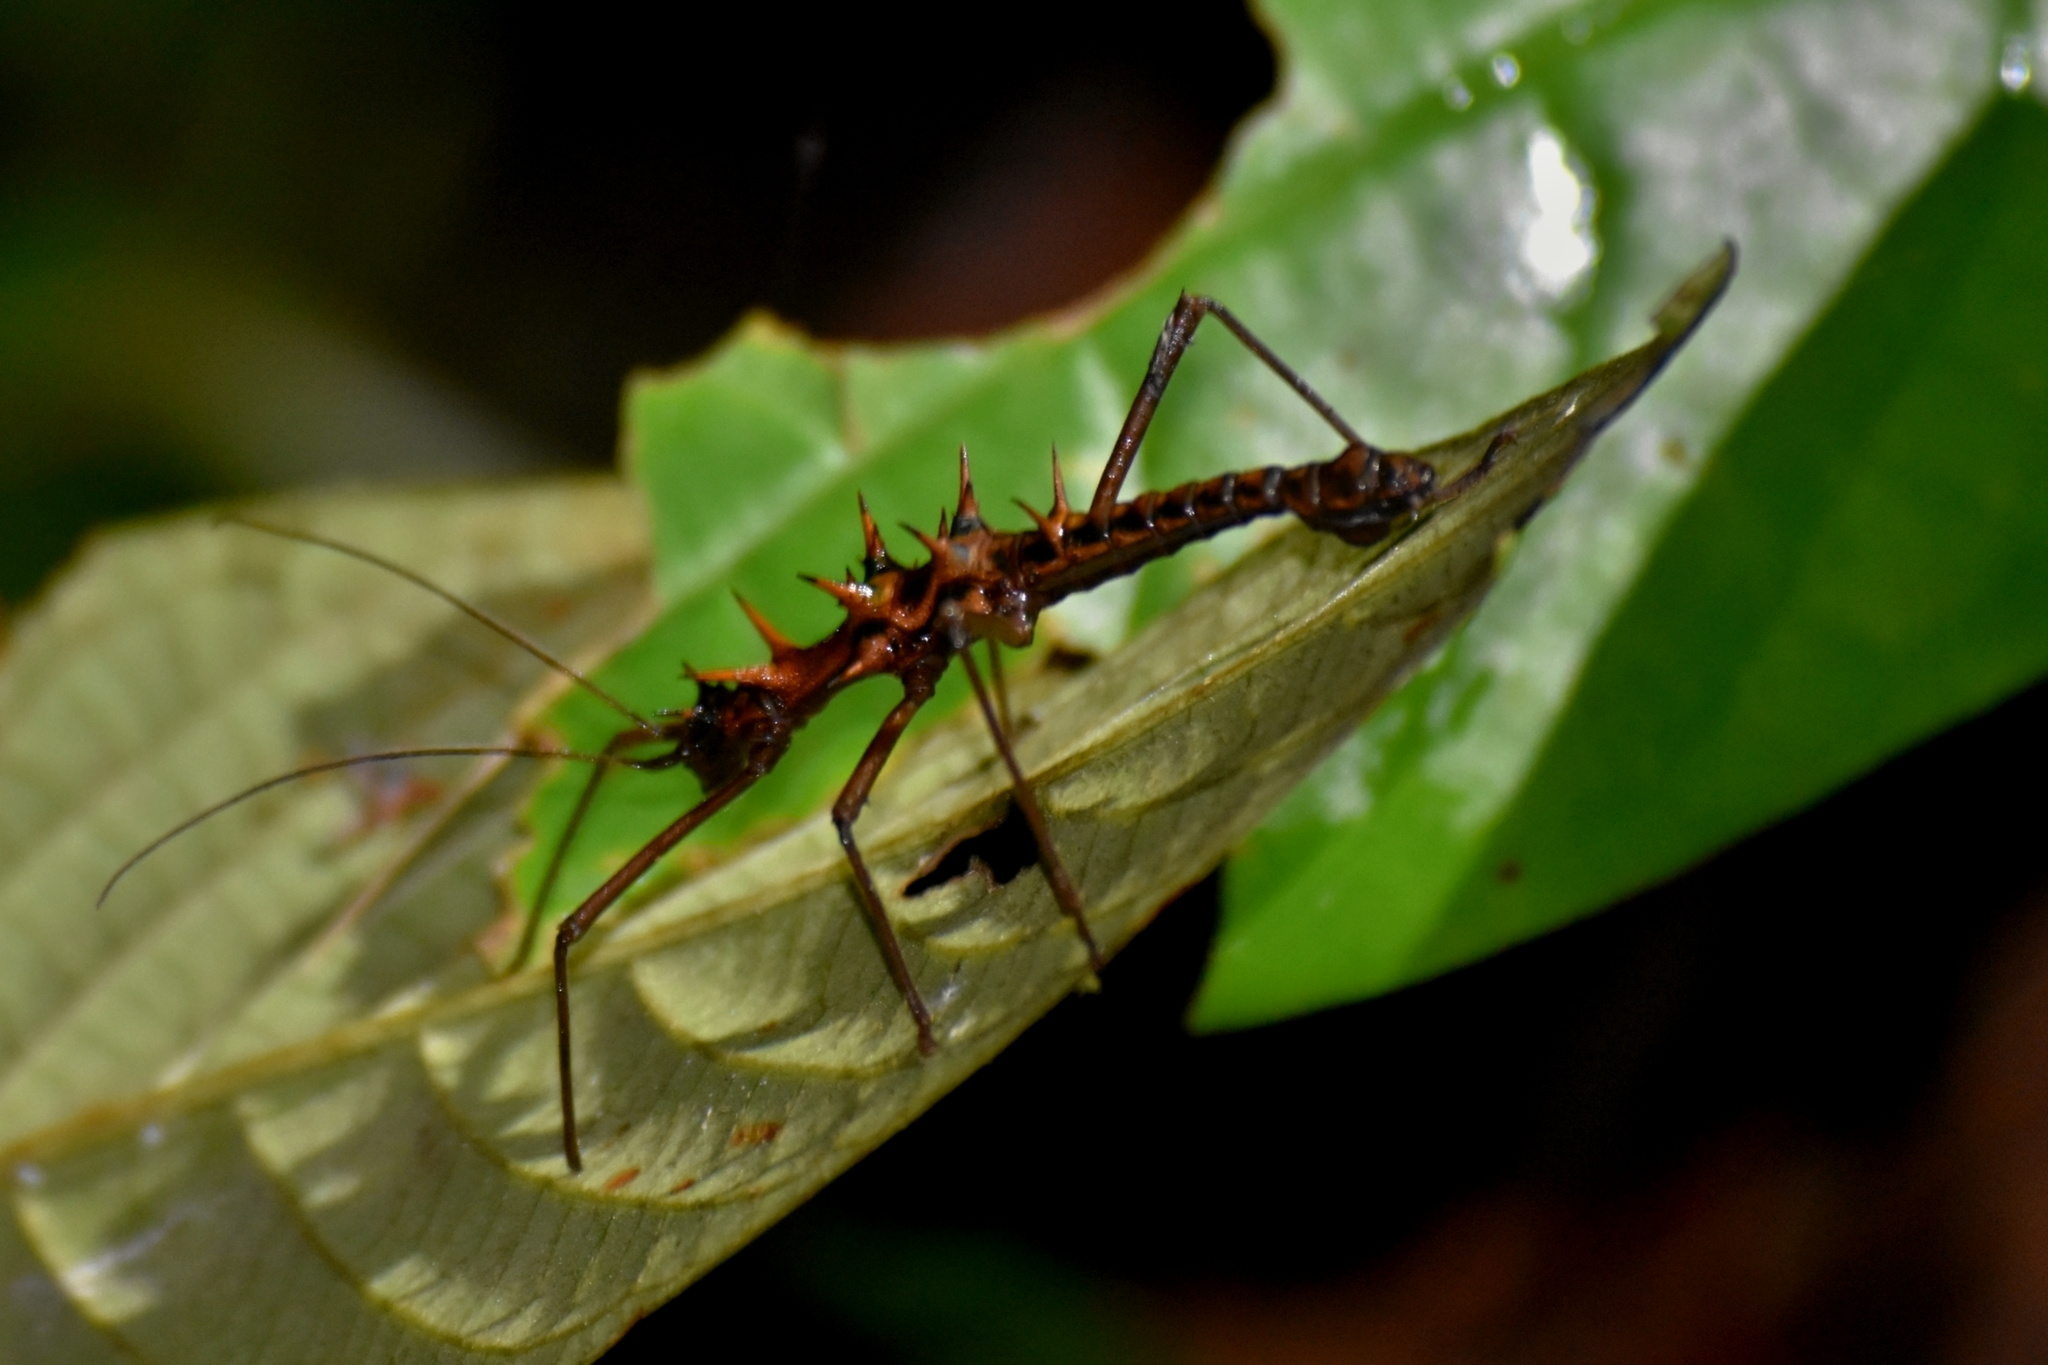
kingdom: Animalia
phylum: Arthropoda
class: Insecta
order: Phasmida
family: Heteropterygidae
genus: Epidares
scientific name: Epidares nolimetangere
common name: Touch me not stick insect
